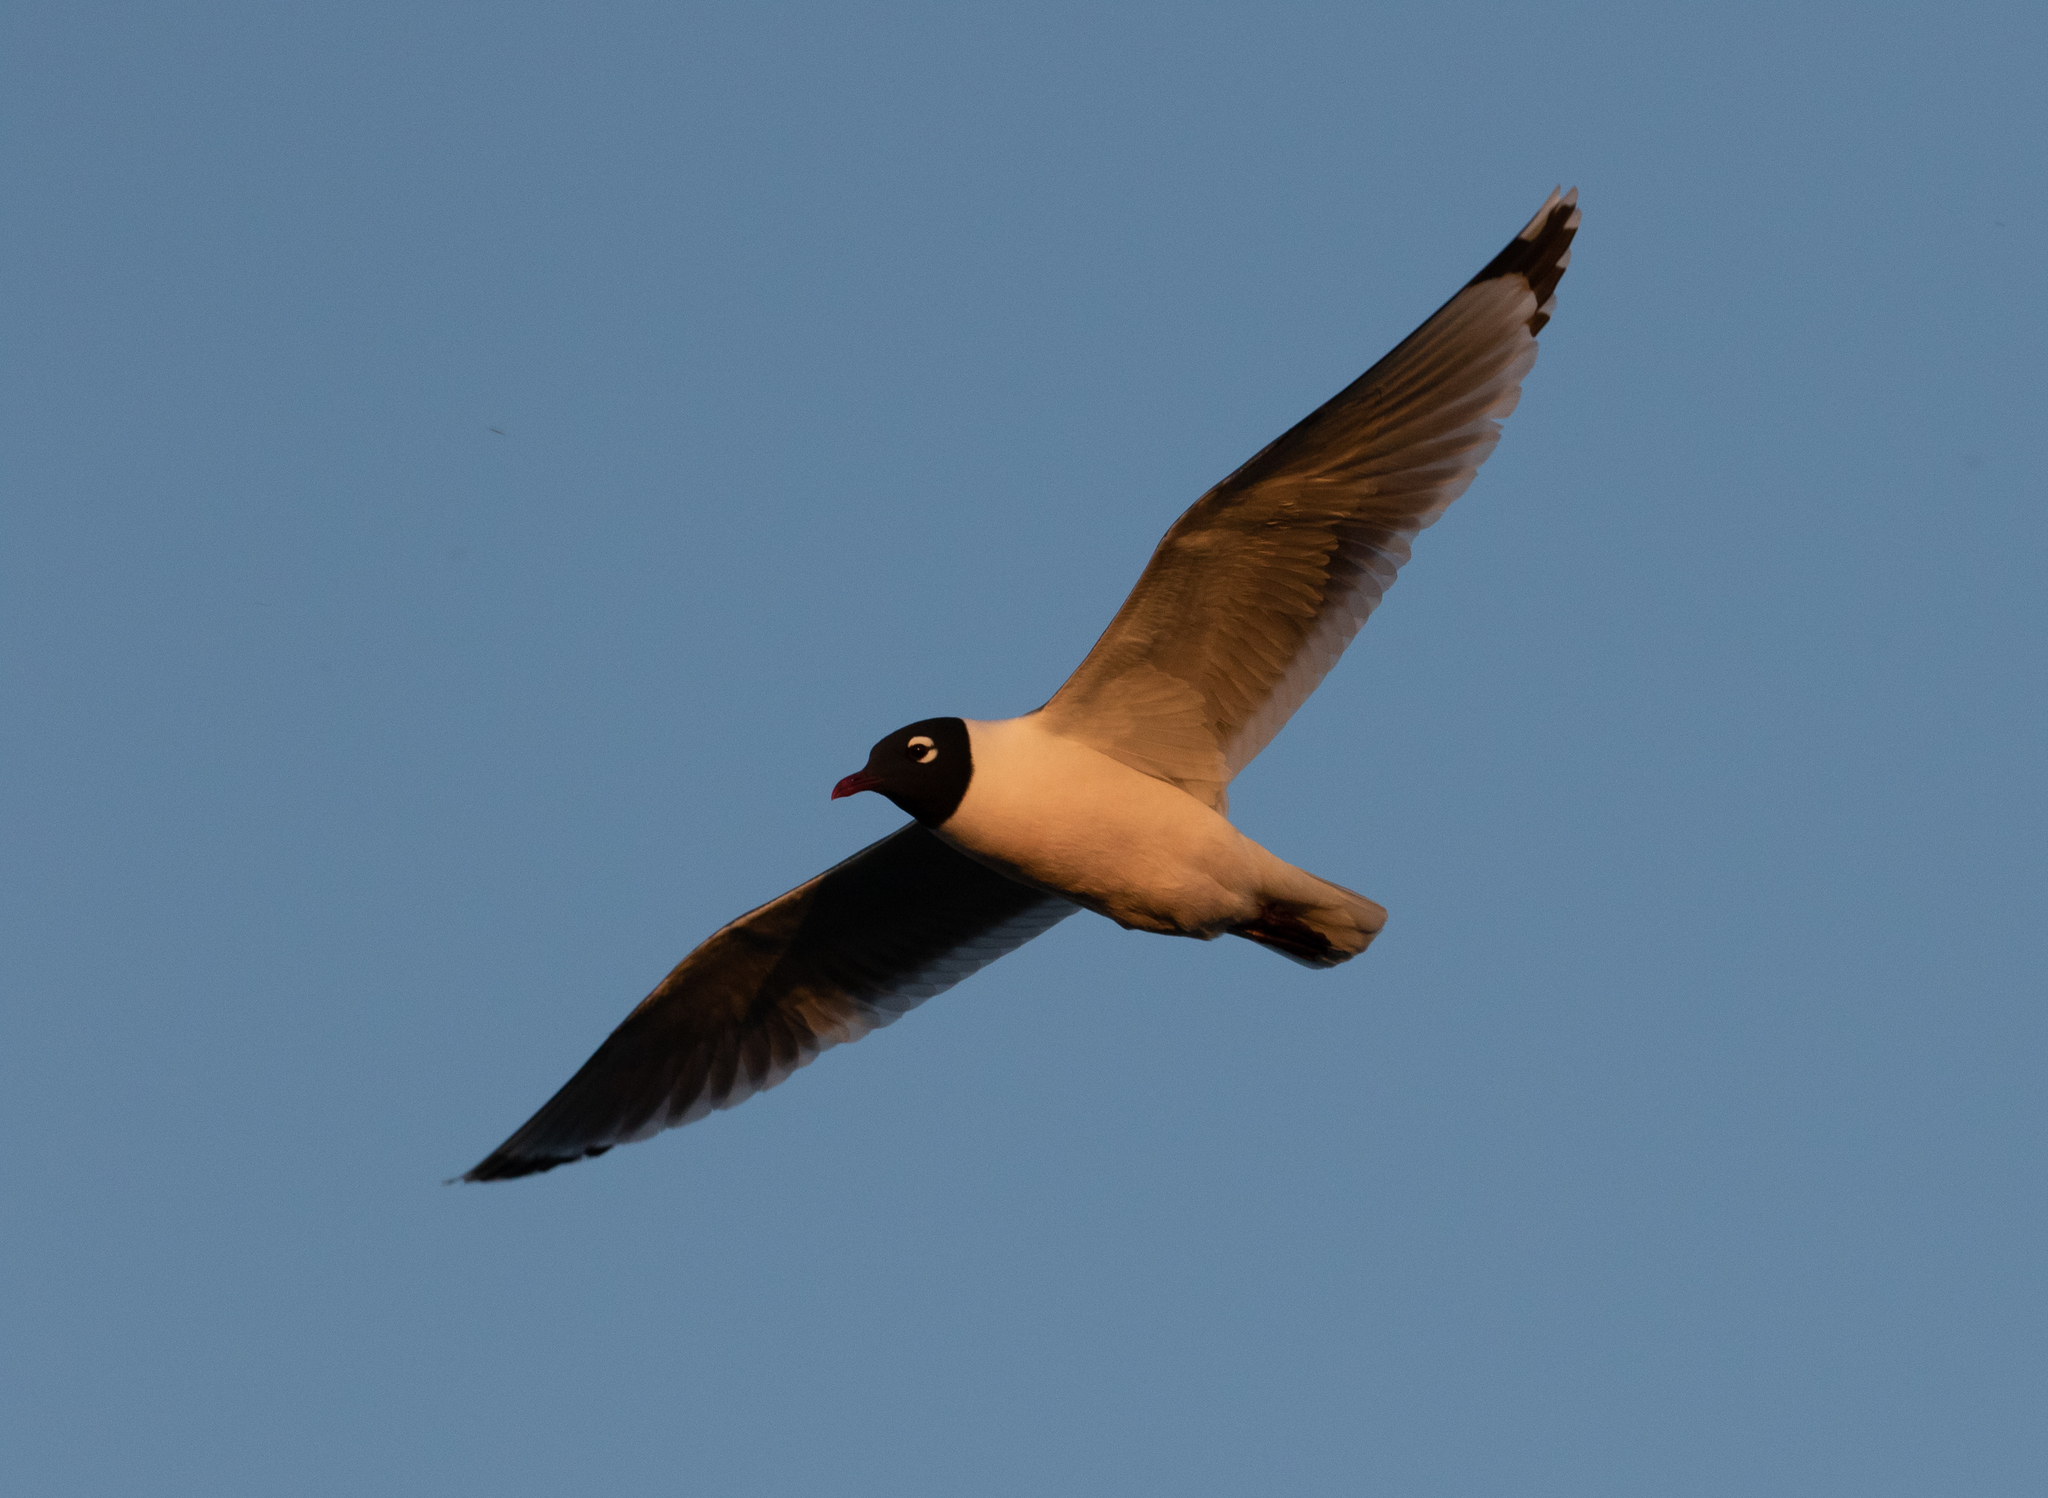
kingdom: Animalia
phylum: Chordata
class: Aves
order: Charadriiformes
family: Laridae
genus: Leucophaeus
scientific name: Leucophaeus pipixcan
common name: Franklin's gull
